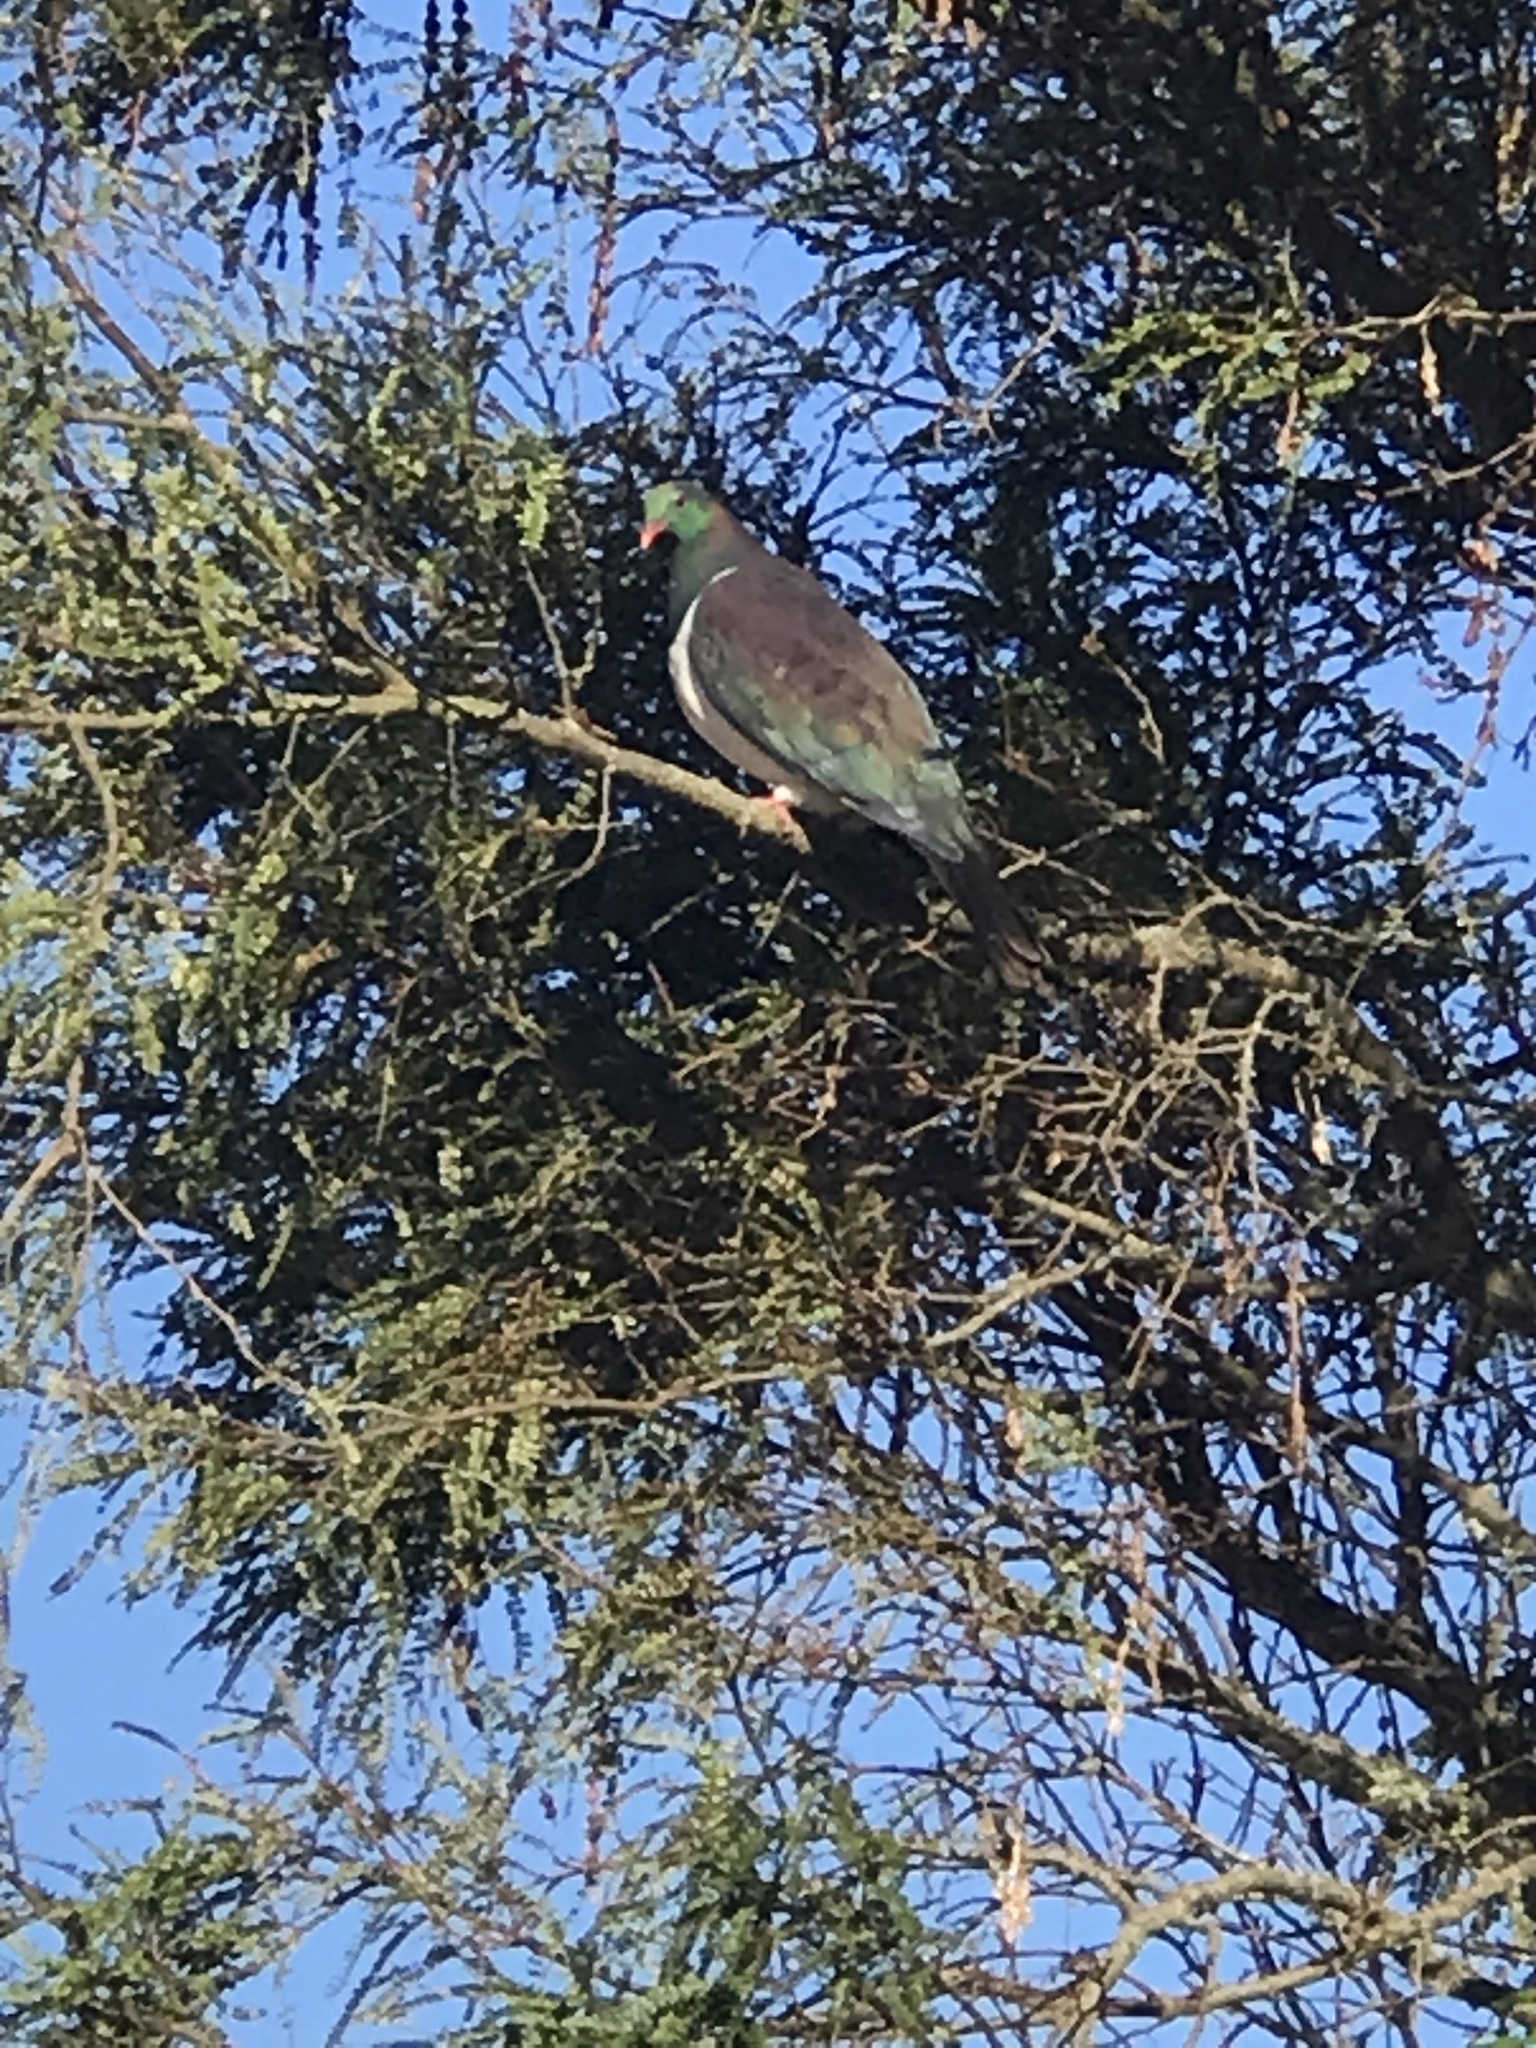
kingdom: Animalia
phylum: Chordata
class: Aves
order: Columbiformes
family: Columbidae
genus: Hemiphaga
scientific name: Hemiphaga novaeseelandiae
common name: New zealand pigeon
